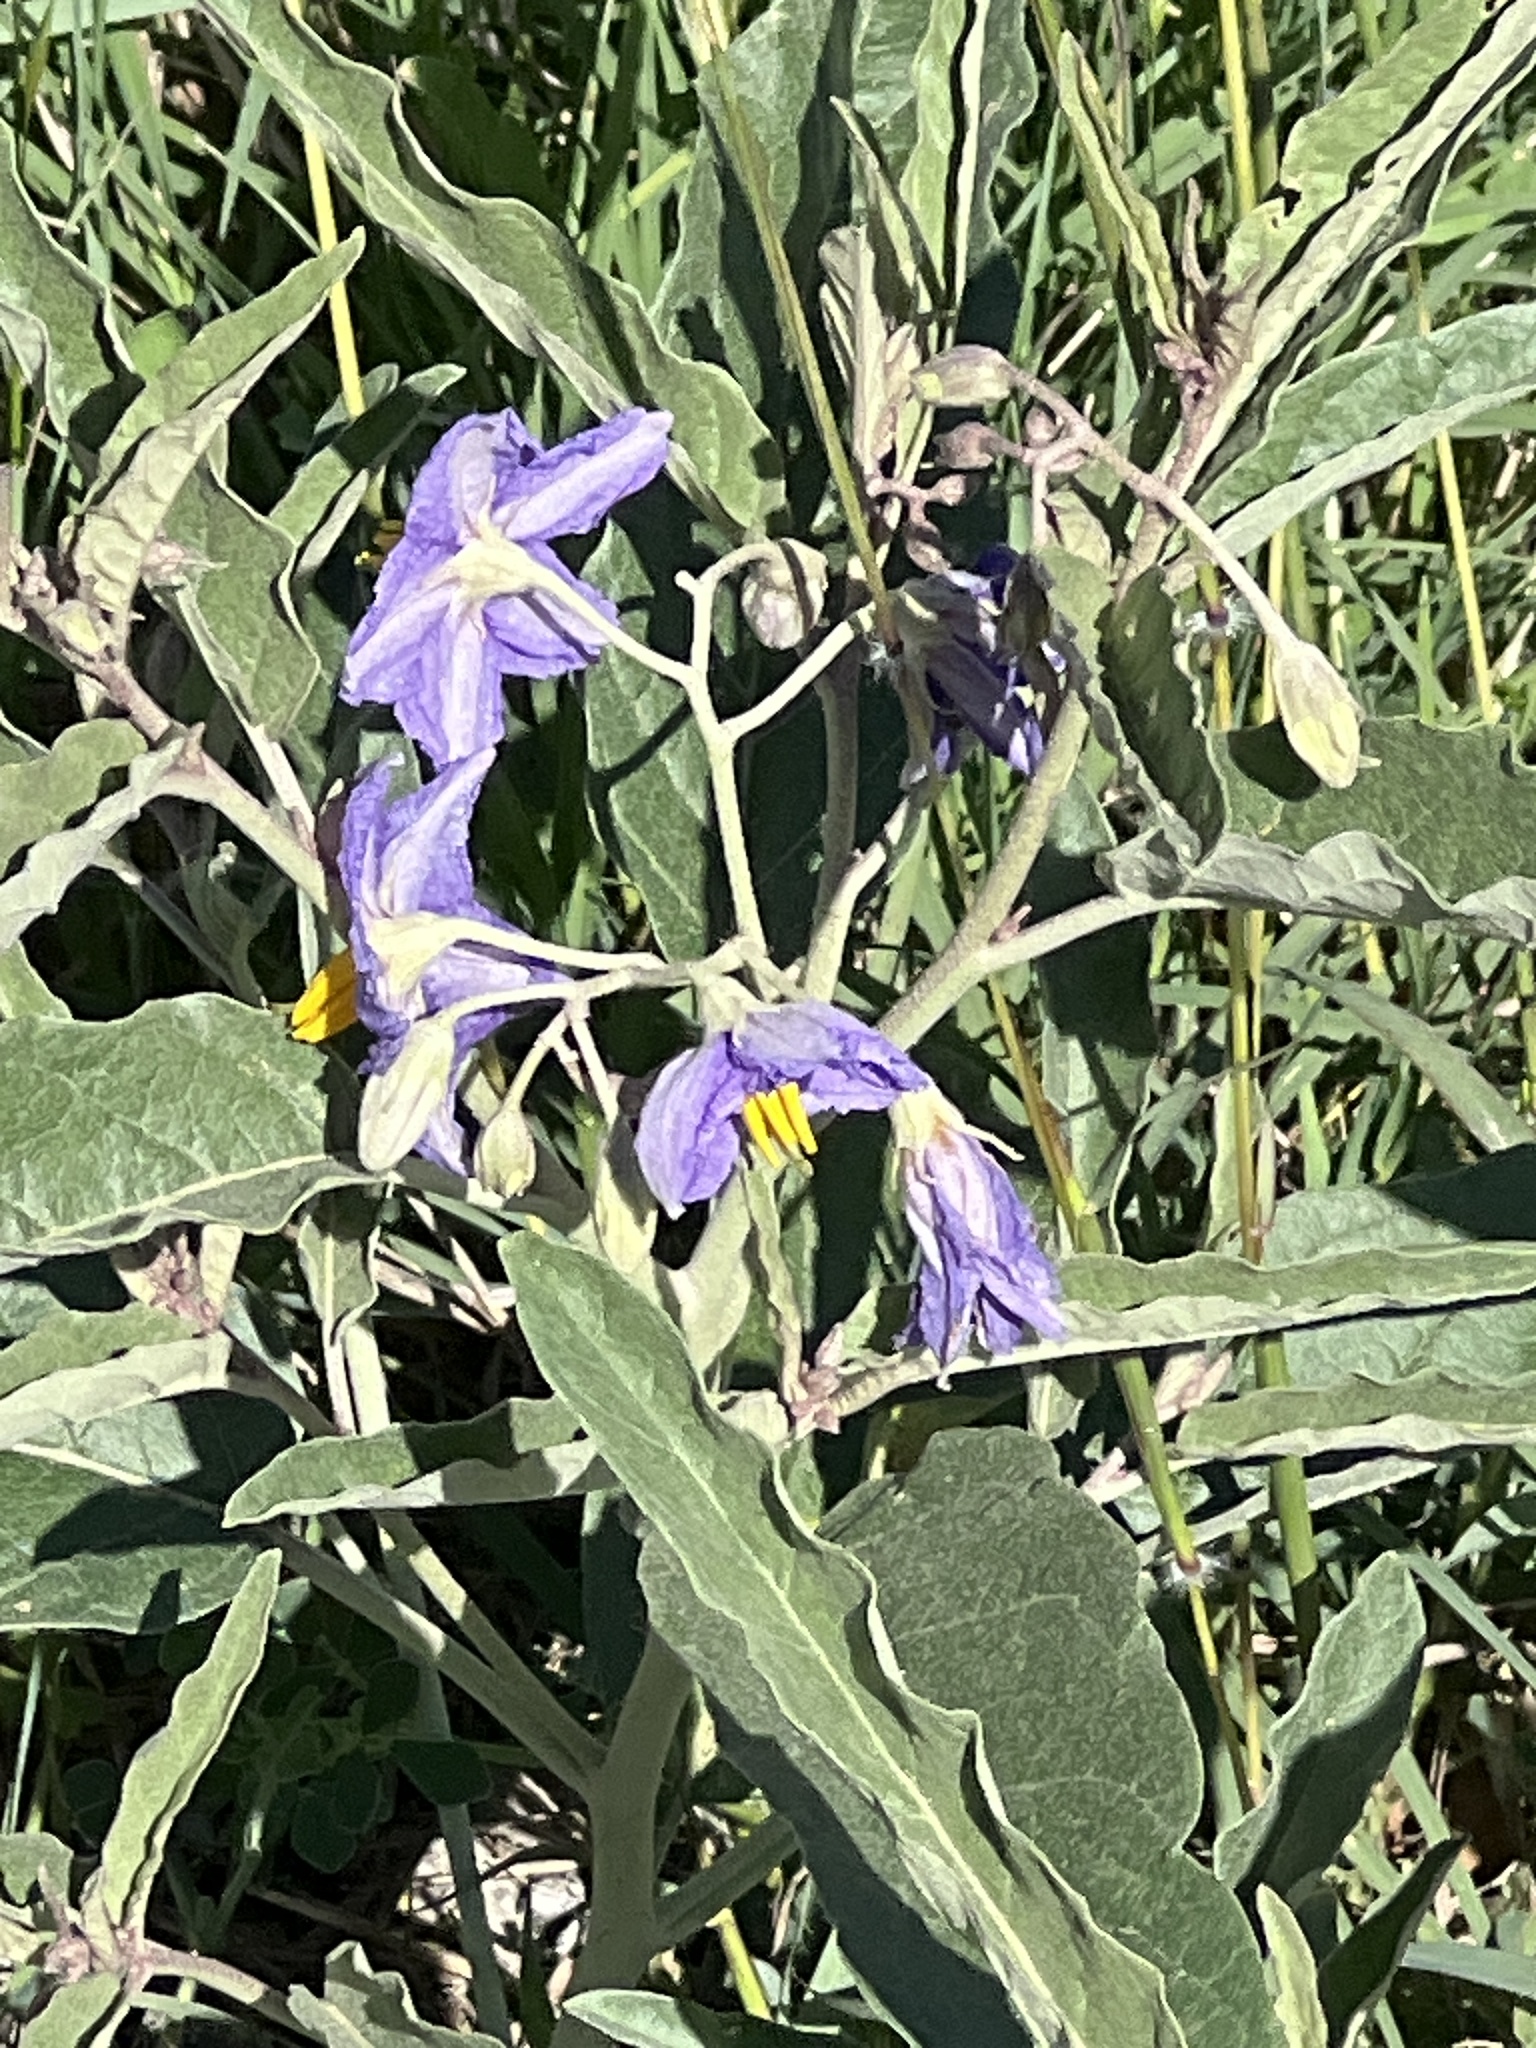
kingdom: Plantae
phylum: Tracheophyta
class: Magnoliopsida
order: Solanales
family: Solanaceae
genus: Solanum
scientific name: Solanum elaeagnifolium
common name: Silverleaf nightshade
